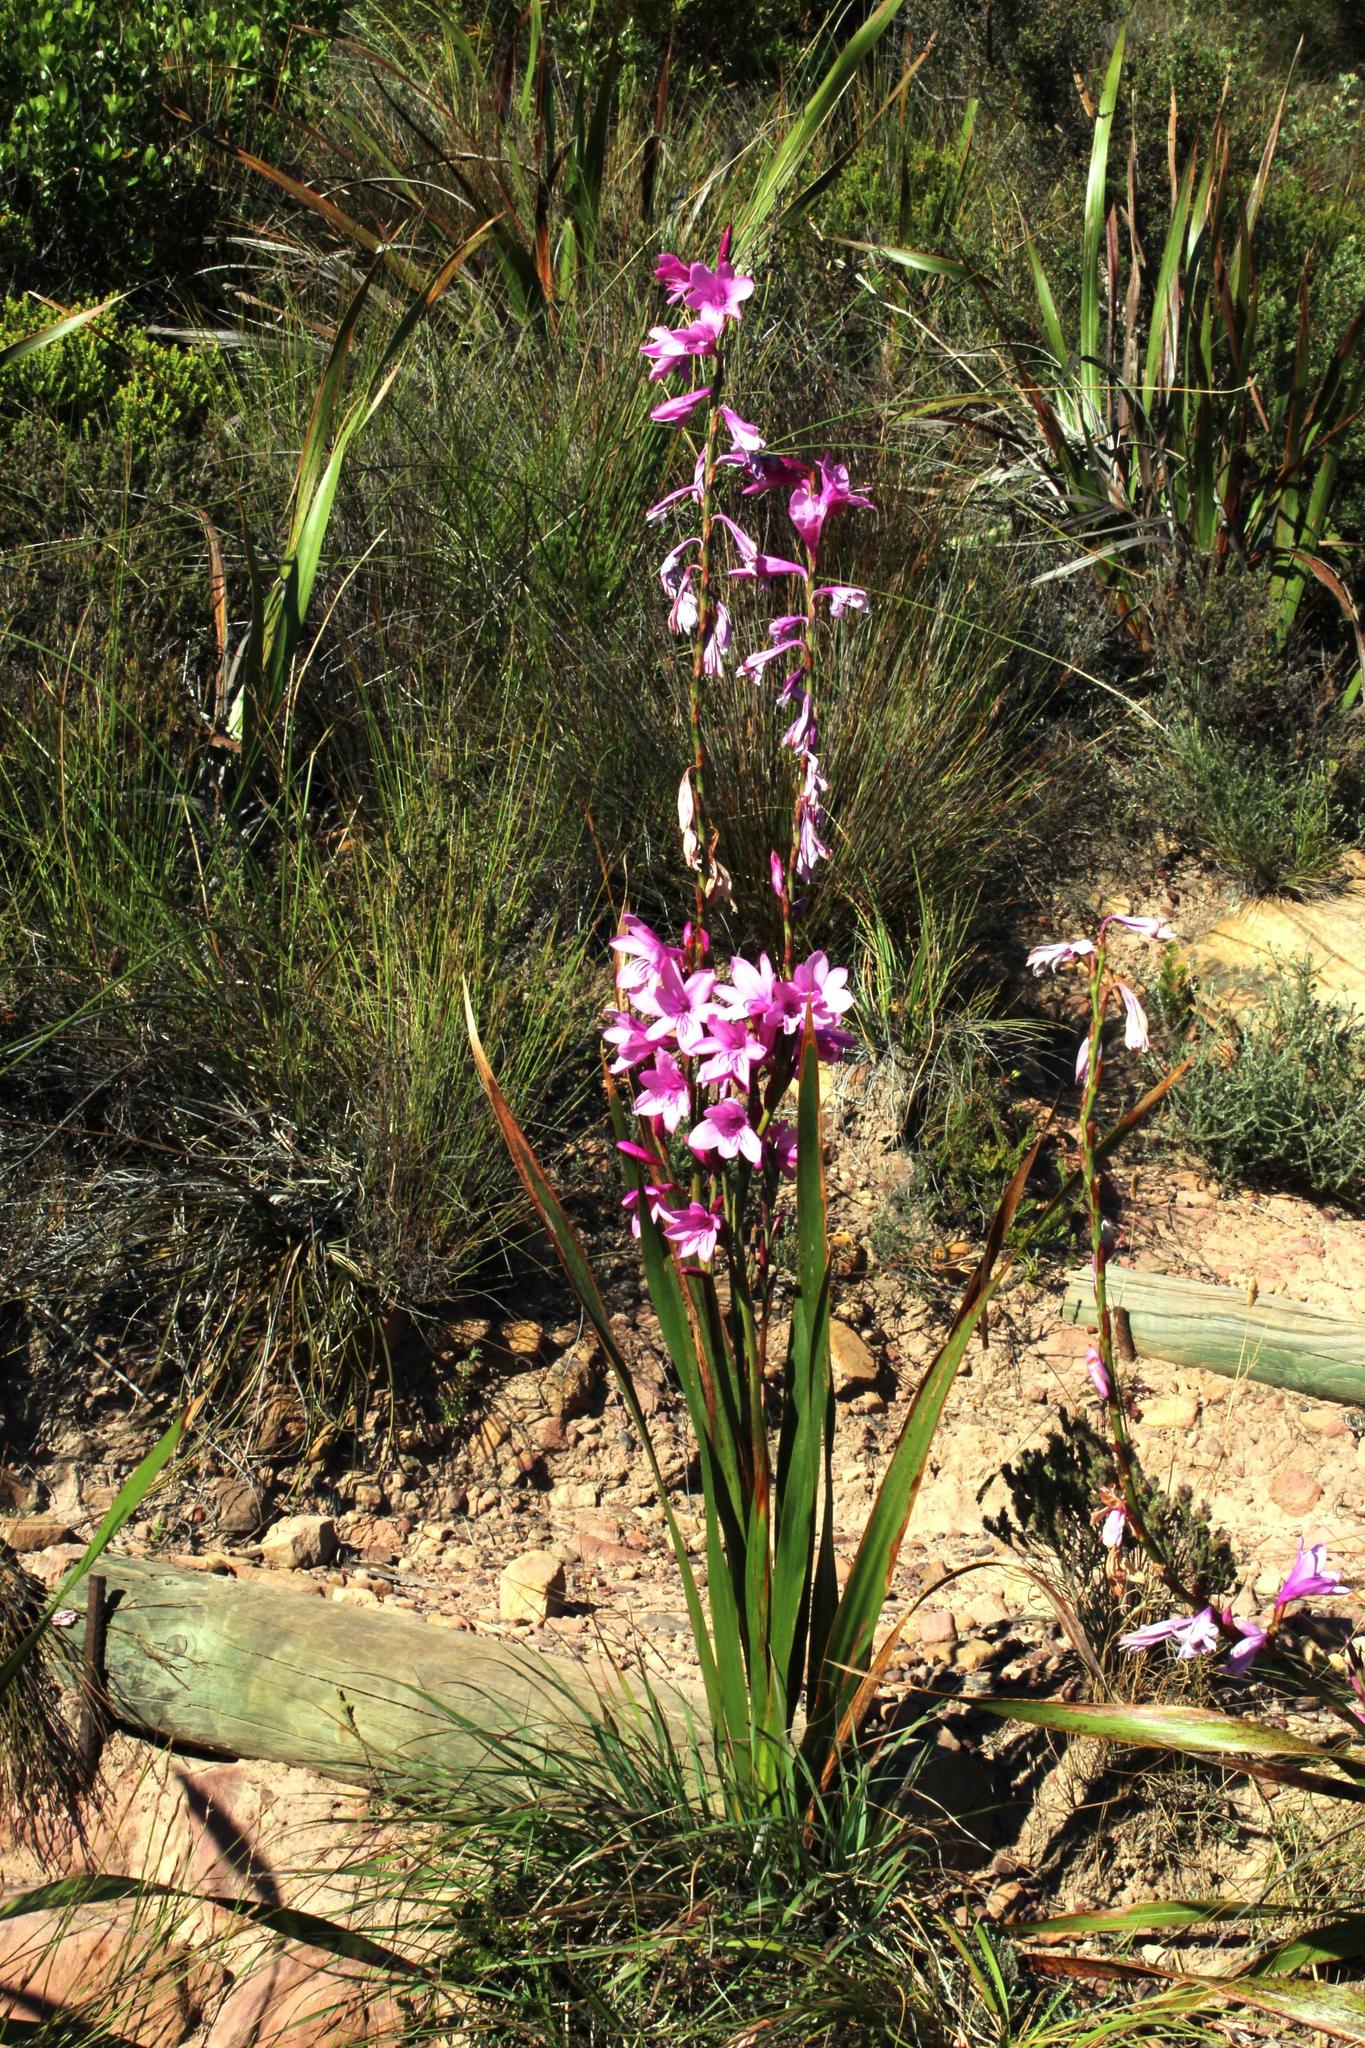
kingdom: Plantae
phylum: Tracheophyta
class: Liliopsida
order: Asparagales
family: Iridaceae
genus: Watsonia
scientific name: Watsonia borbonica
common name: Bugle-lily
